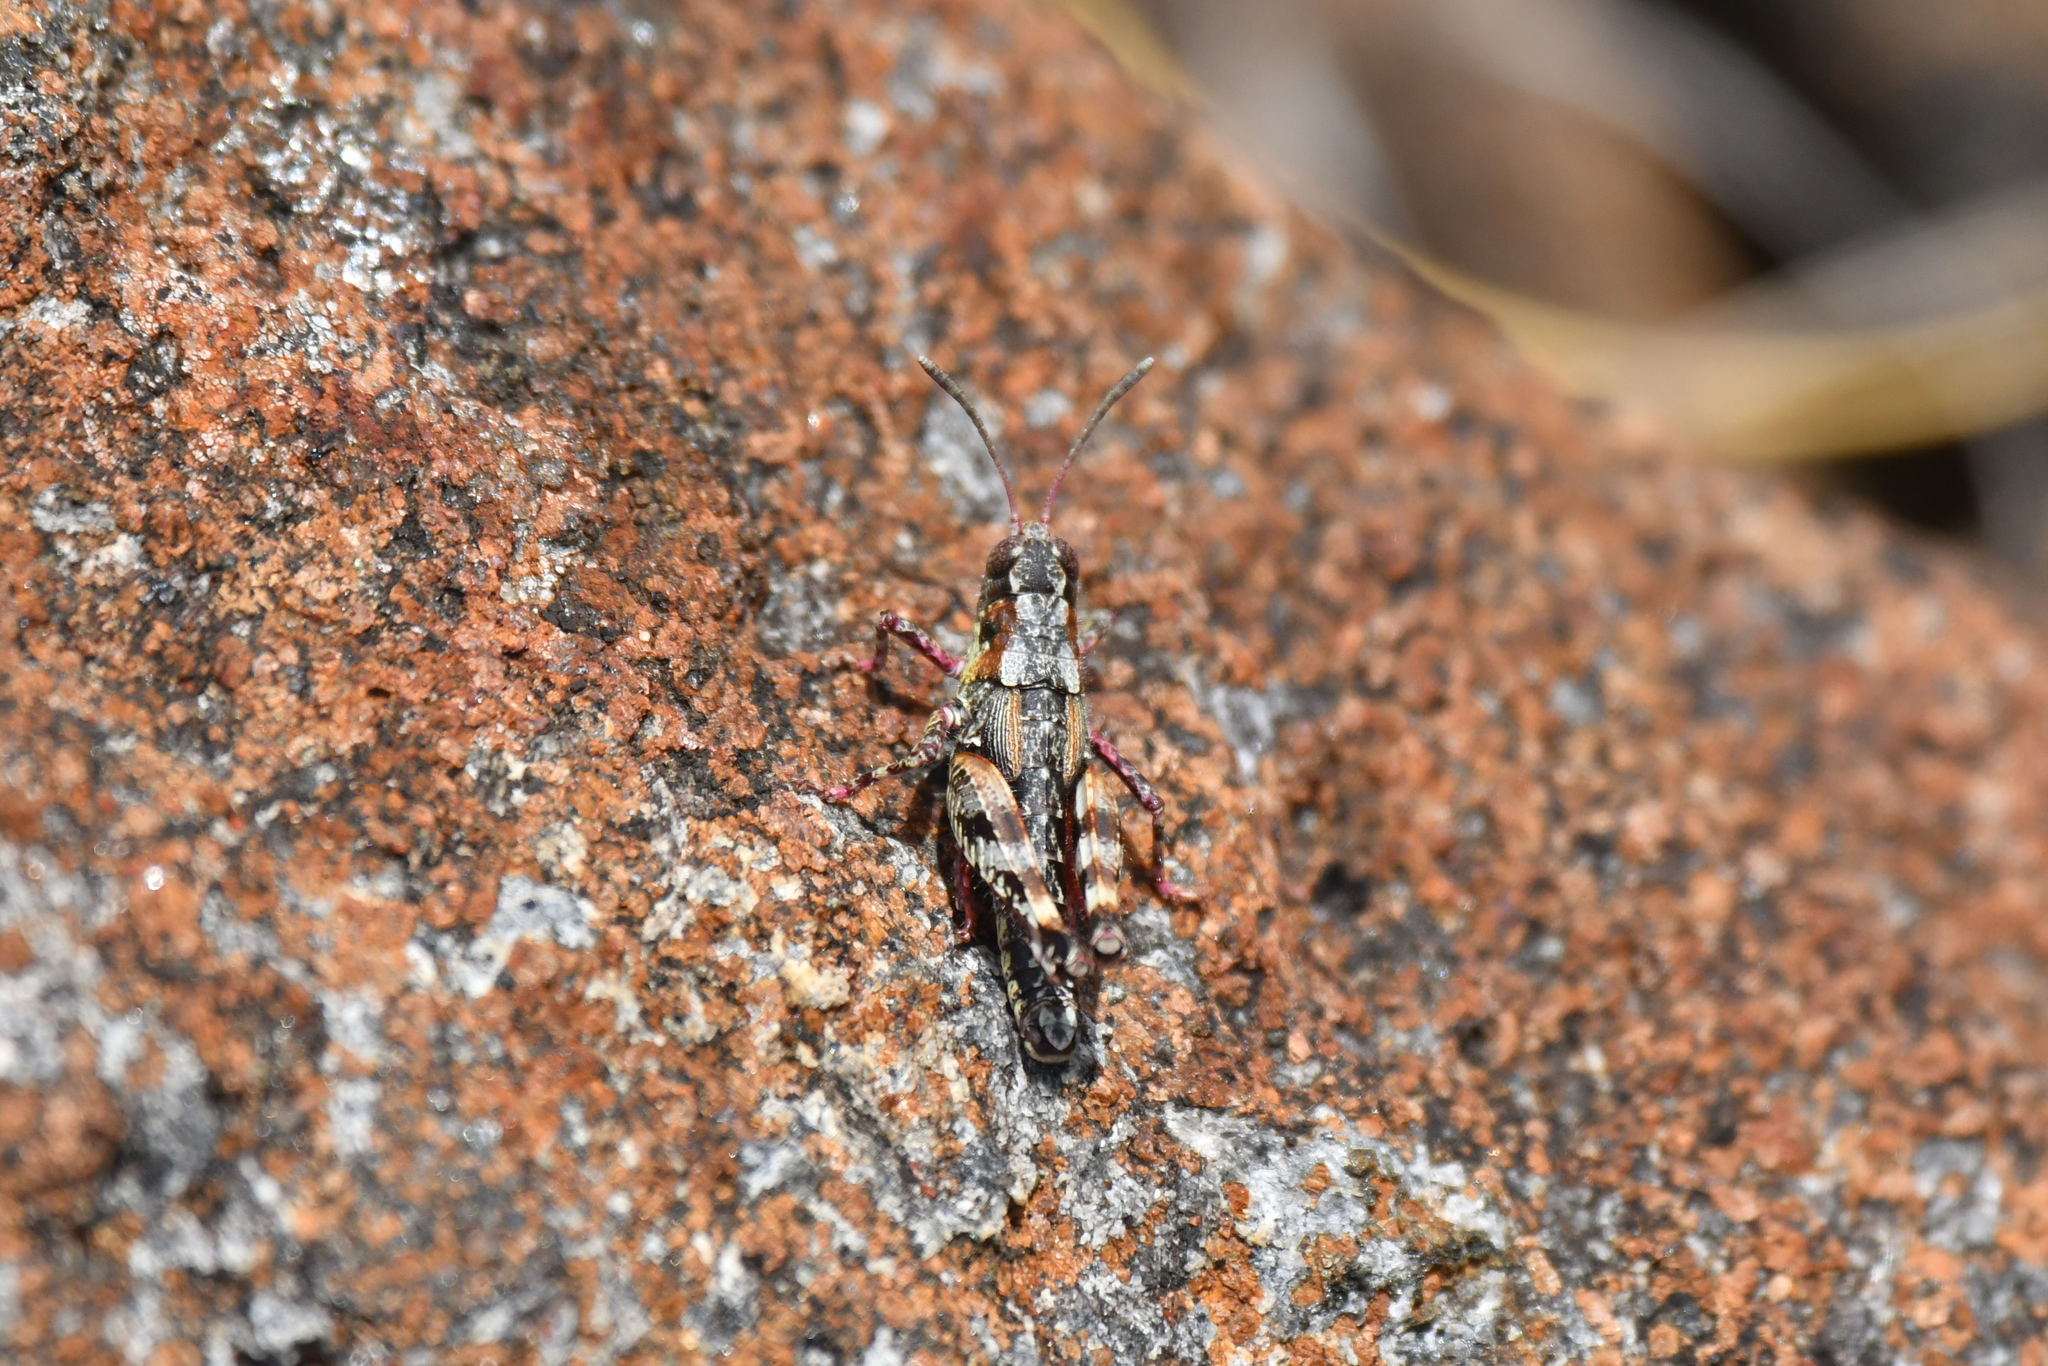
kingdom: Animalia
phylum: Arthropoda
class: Insecta
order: Orthoptera
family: Acrididae
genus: Sigaus
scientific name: Sigaus australis
